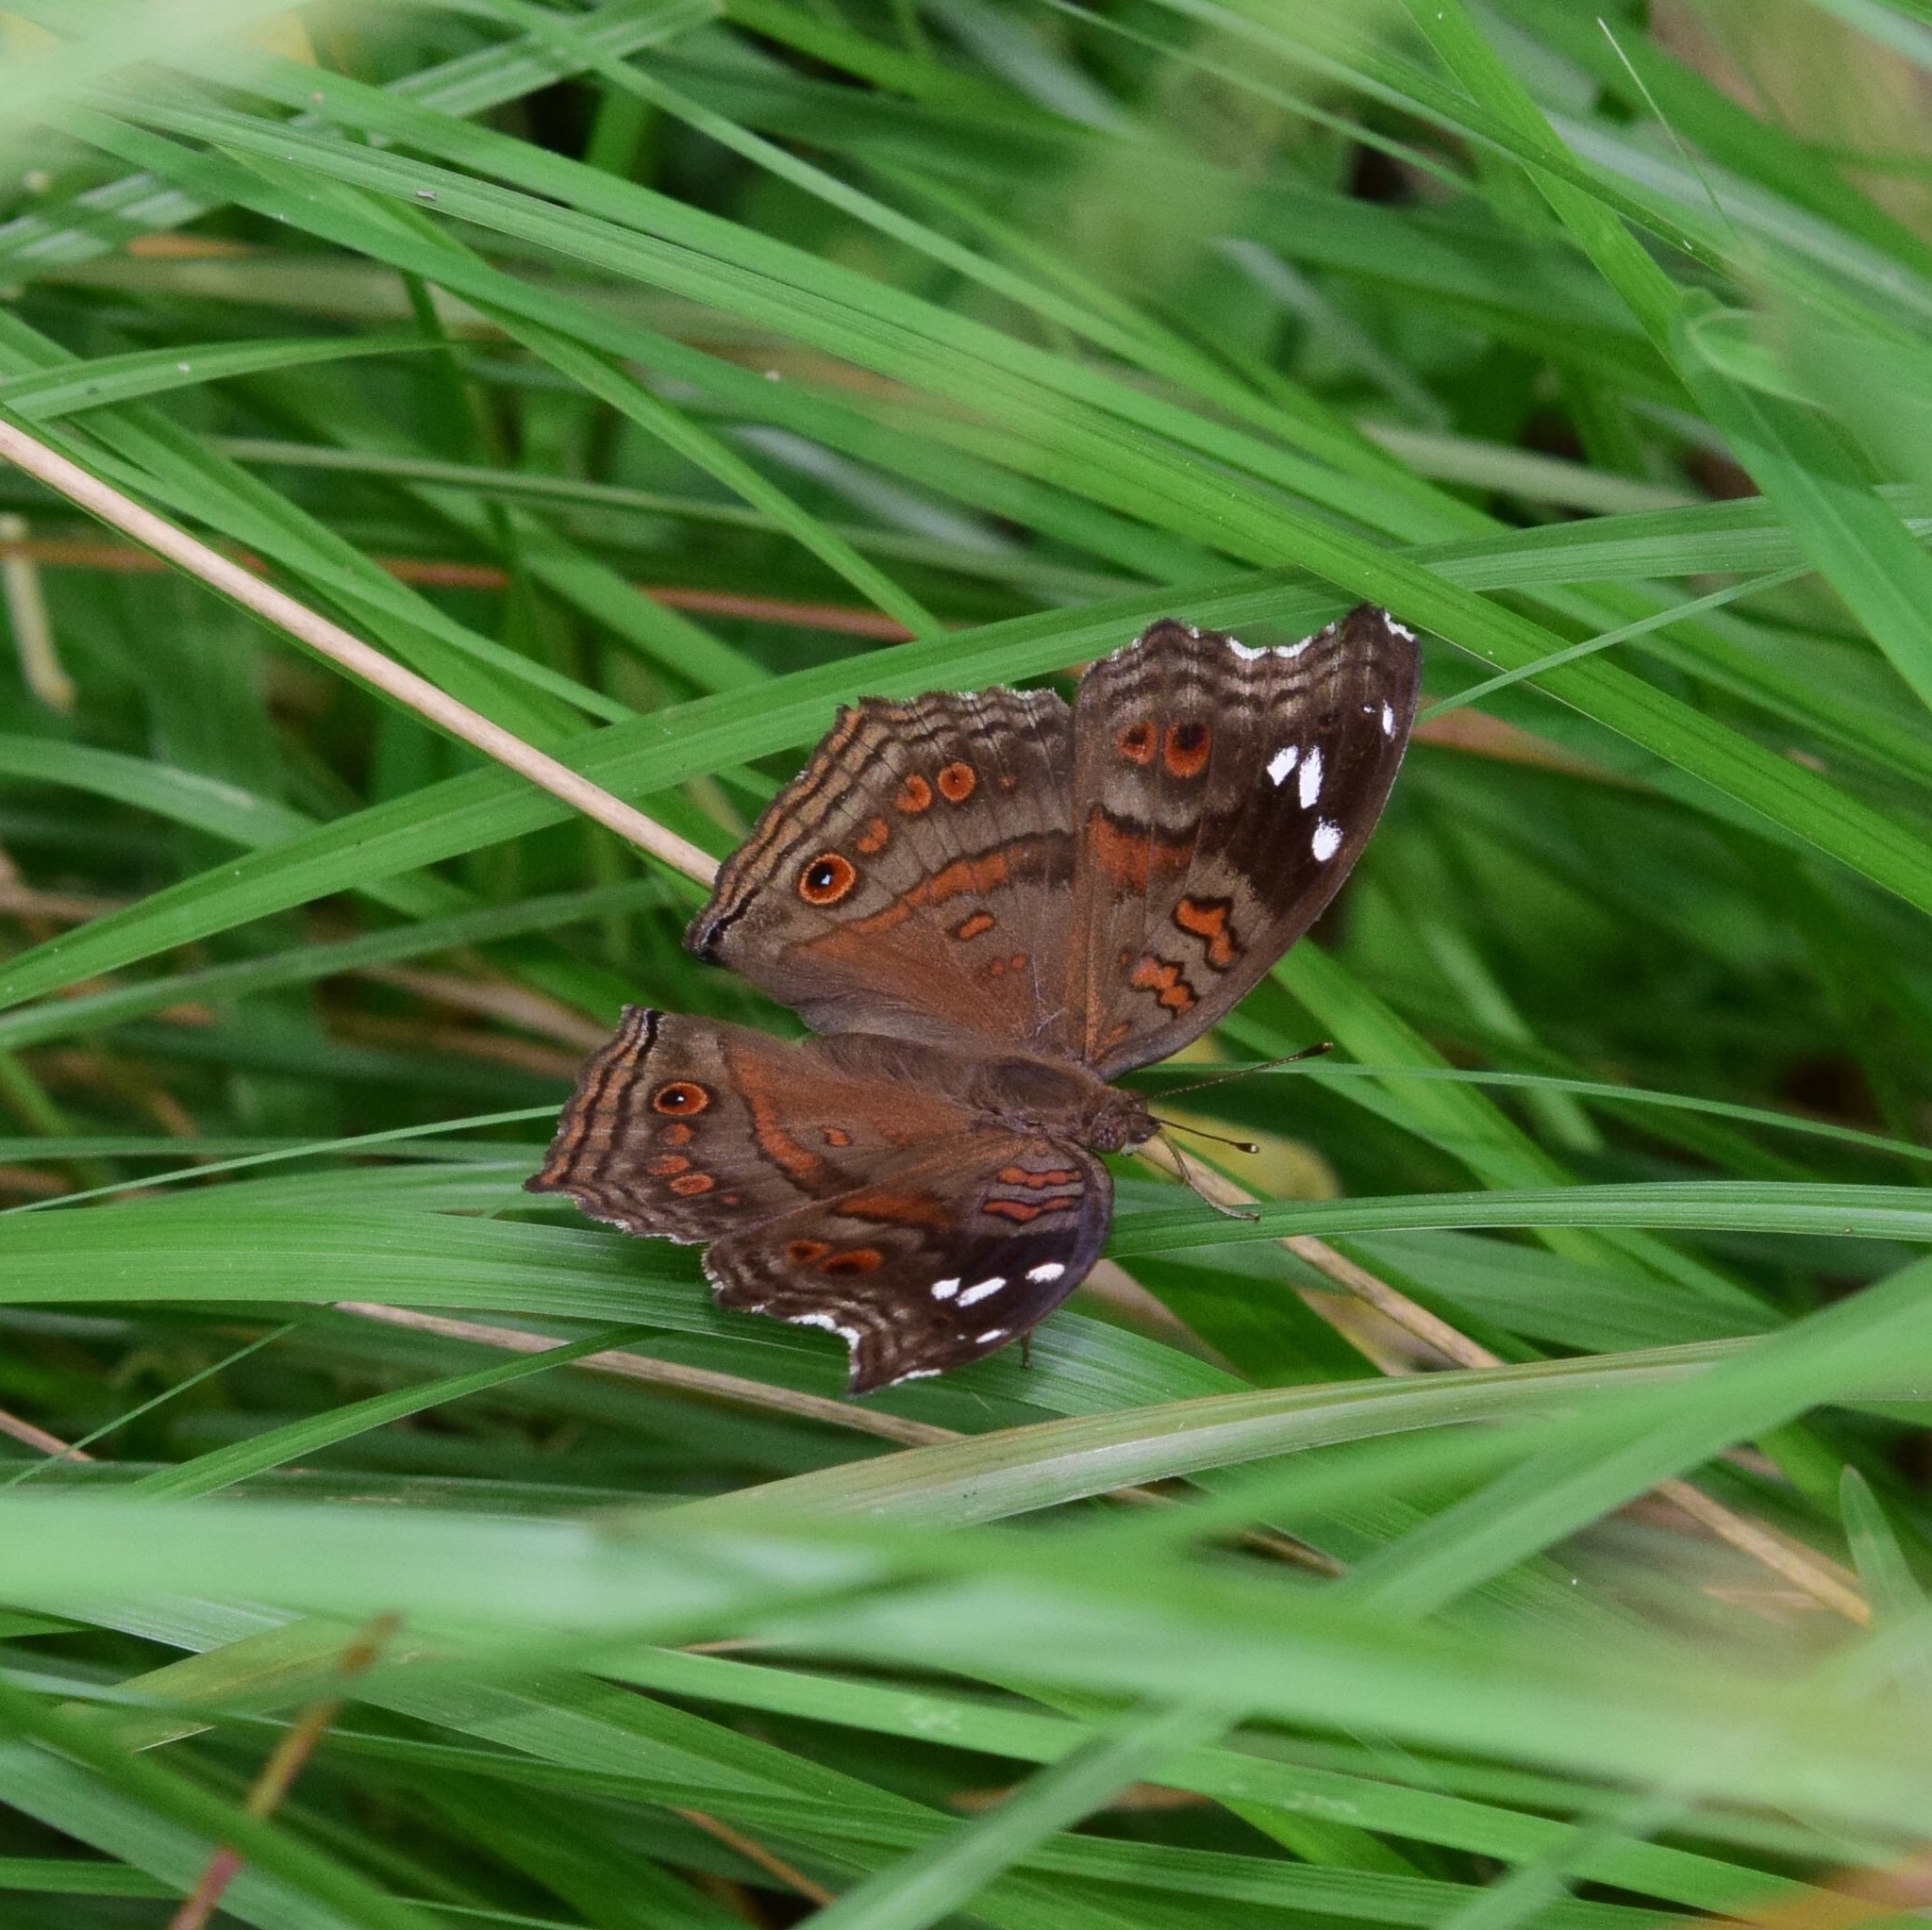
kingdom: Animalia
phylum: Arthropoda
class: Insecta
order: Lepidoptera
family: Nymphalidae
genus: Junonia
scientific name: Junonia natalica
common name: Brown pansy
